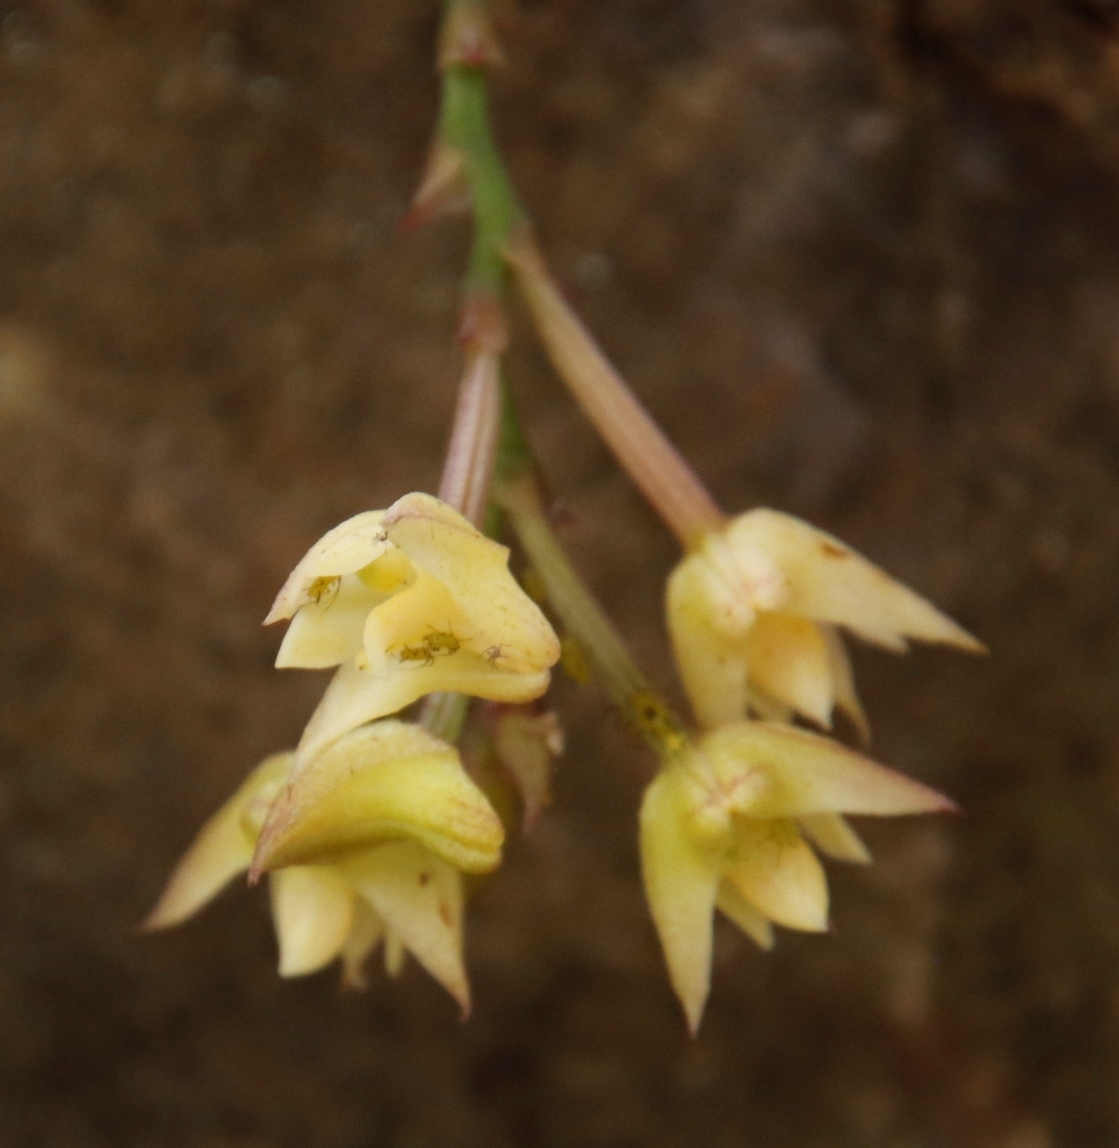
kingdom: Plantae
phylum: Tracheophyta
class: Liliopsida
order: Asparagales
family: Orchidaceae
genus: Polystachya
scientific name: Polystachya cultriformis
